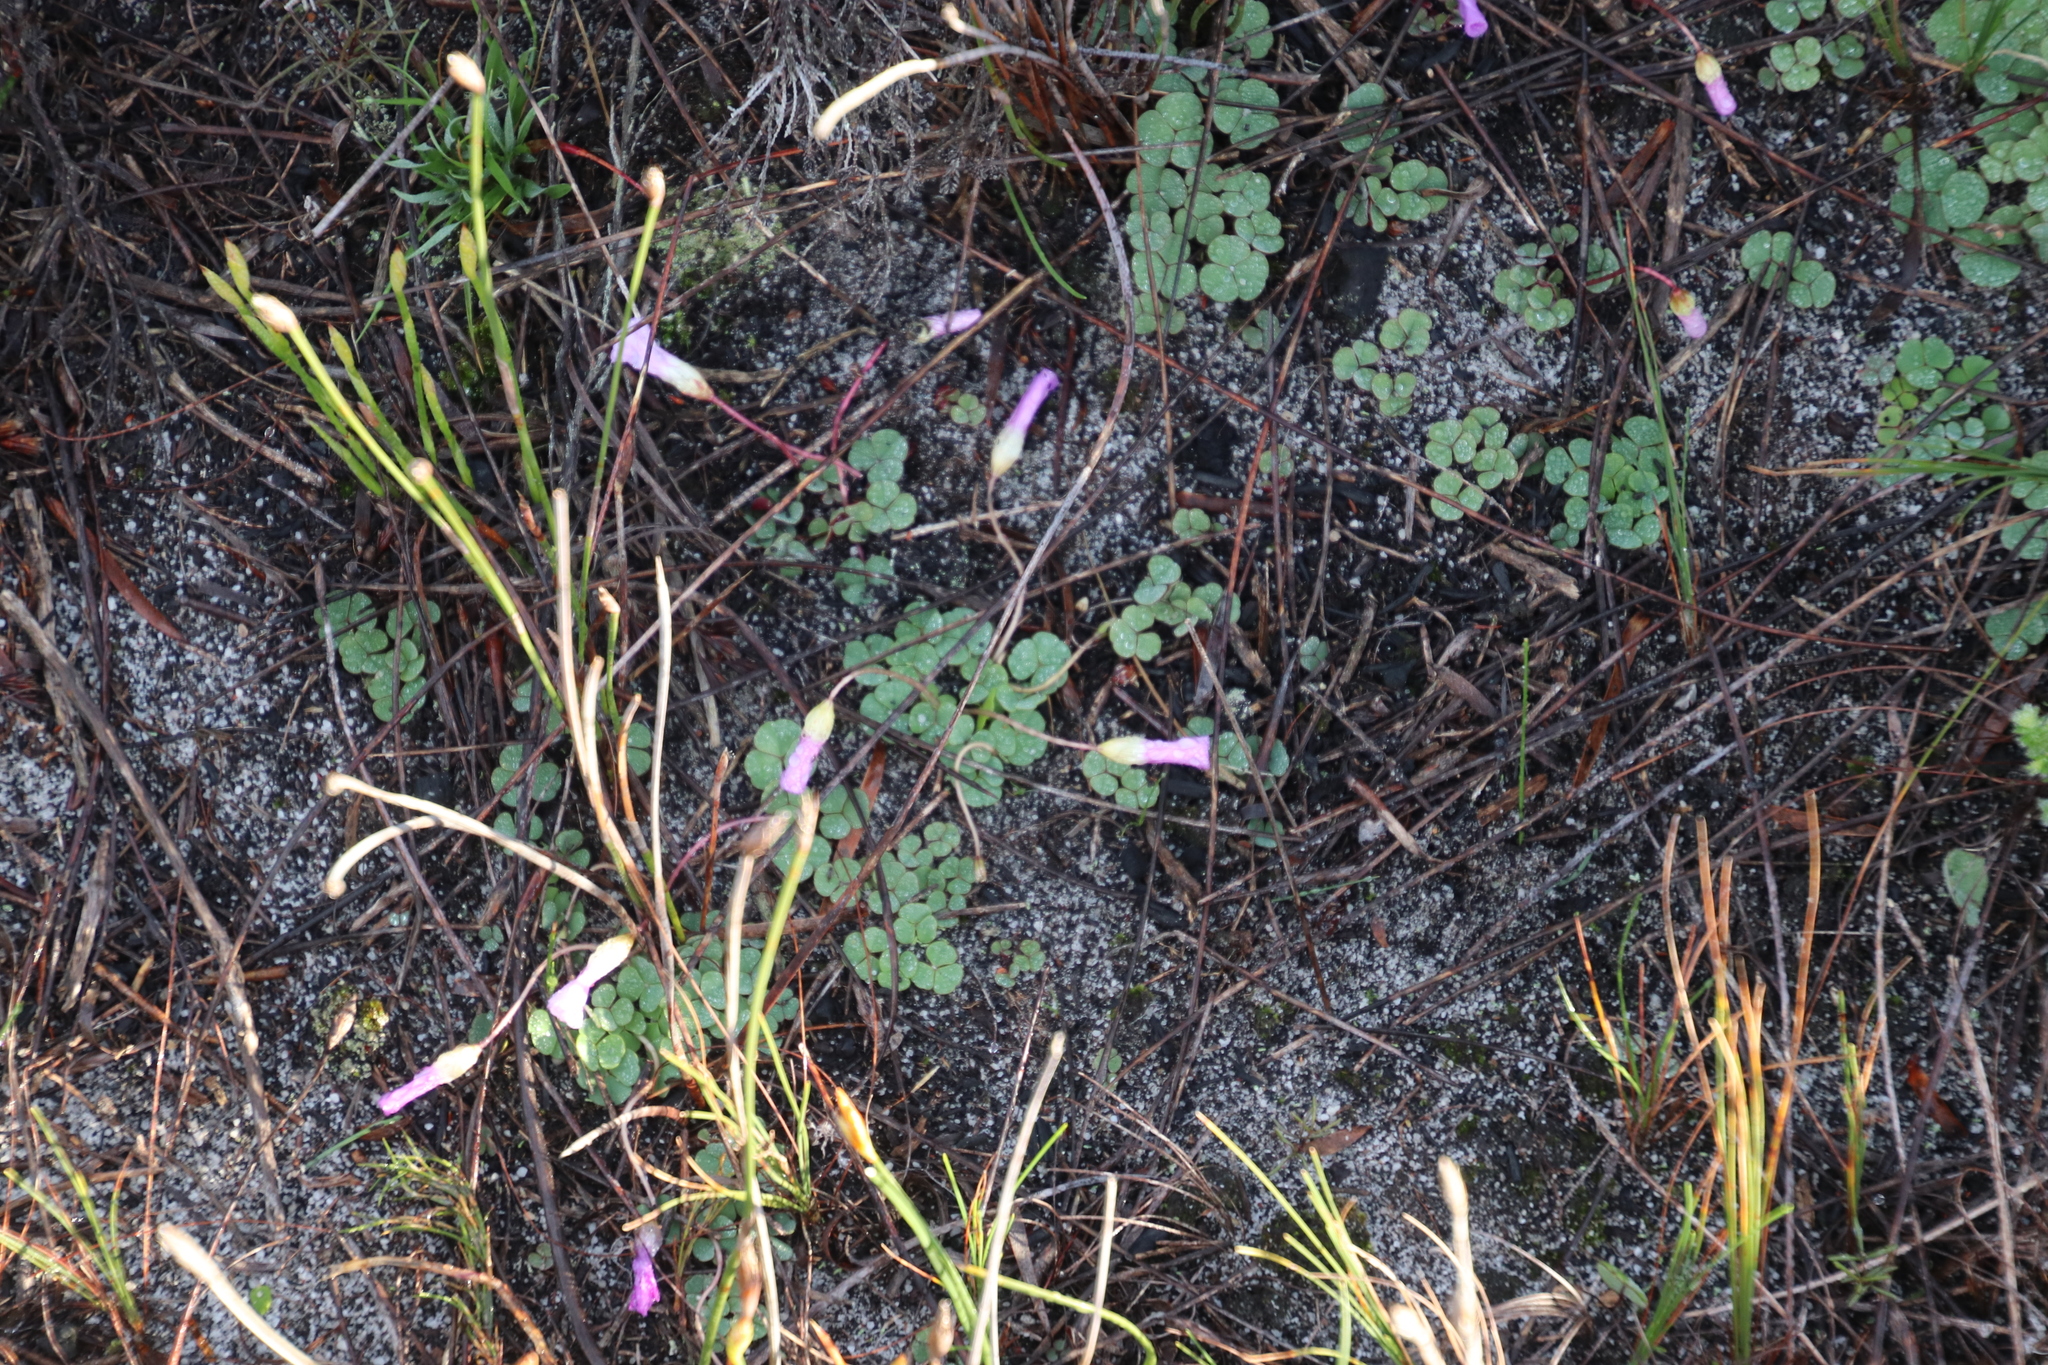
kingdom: Plantae
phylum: Tracheophyta
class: Magnoliopsida
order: Oxalidales
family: Oxalidaceae
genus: Oxalis
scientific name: Oxalis commutata
